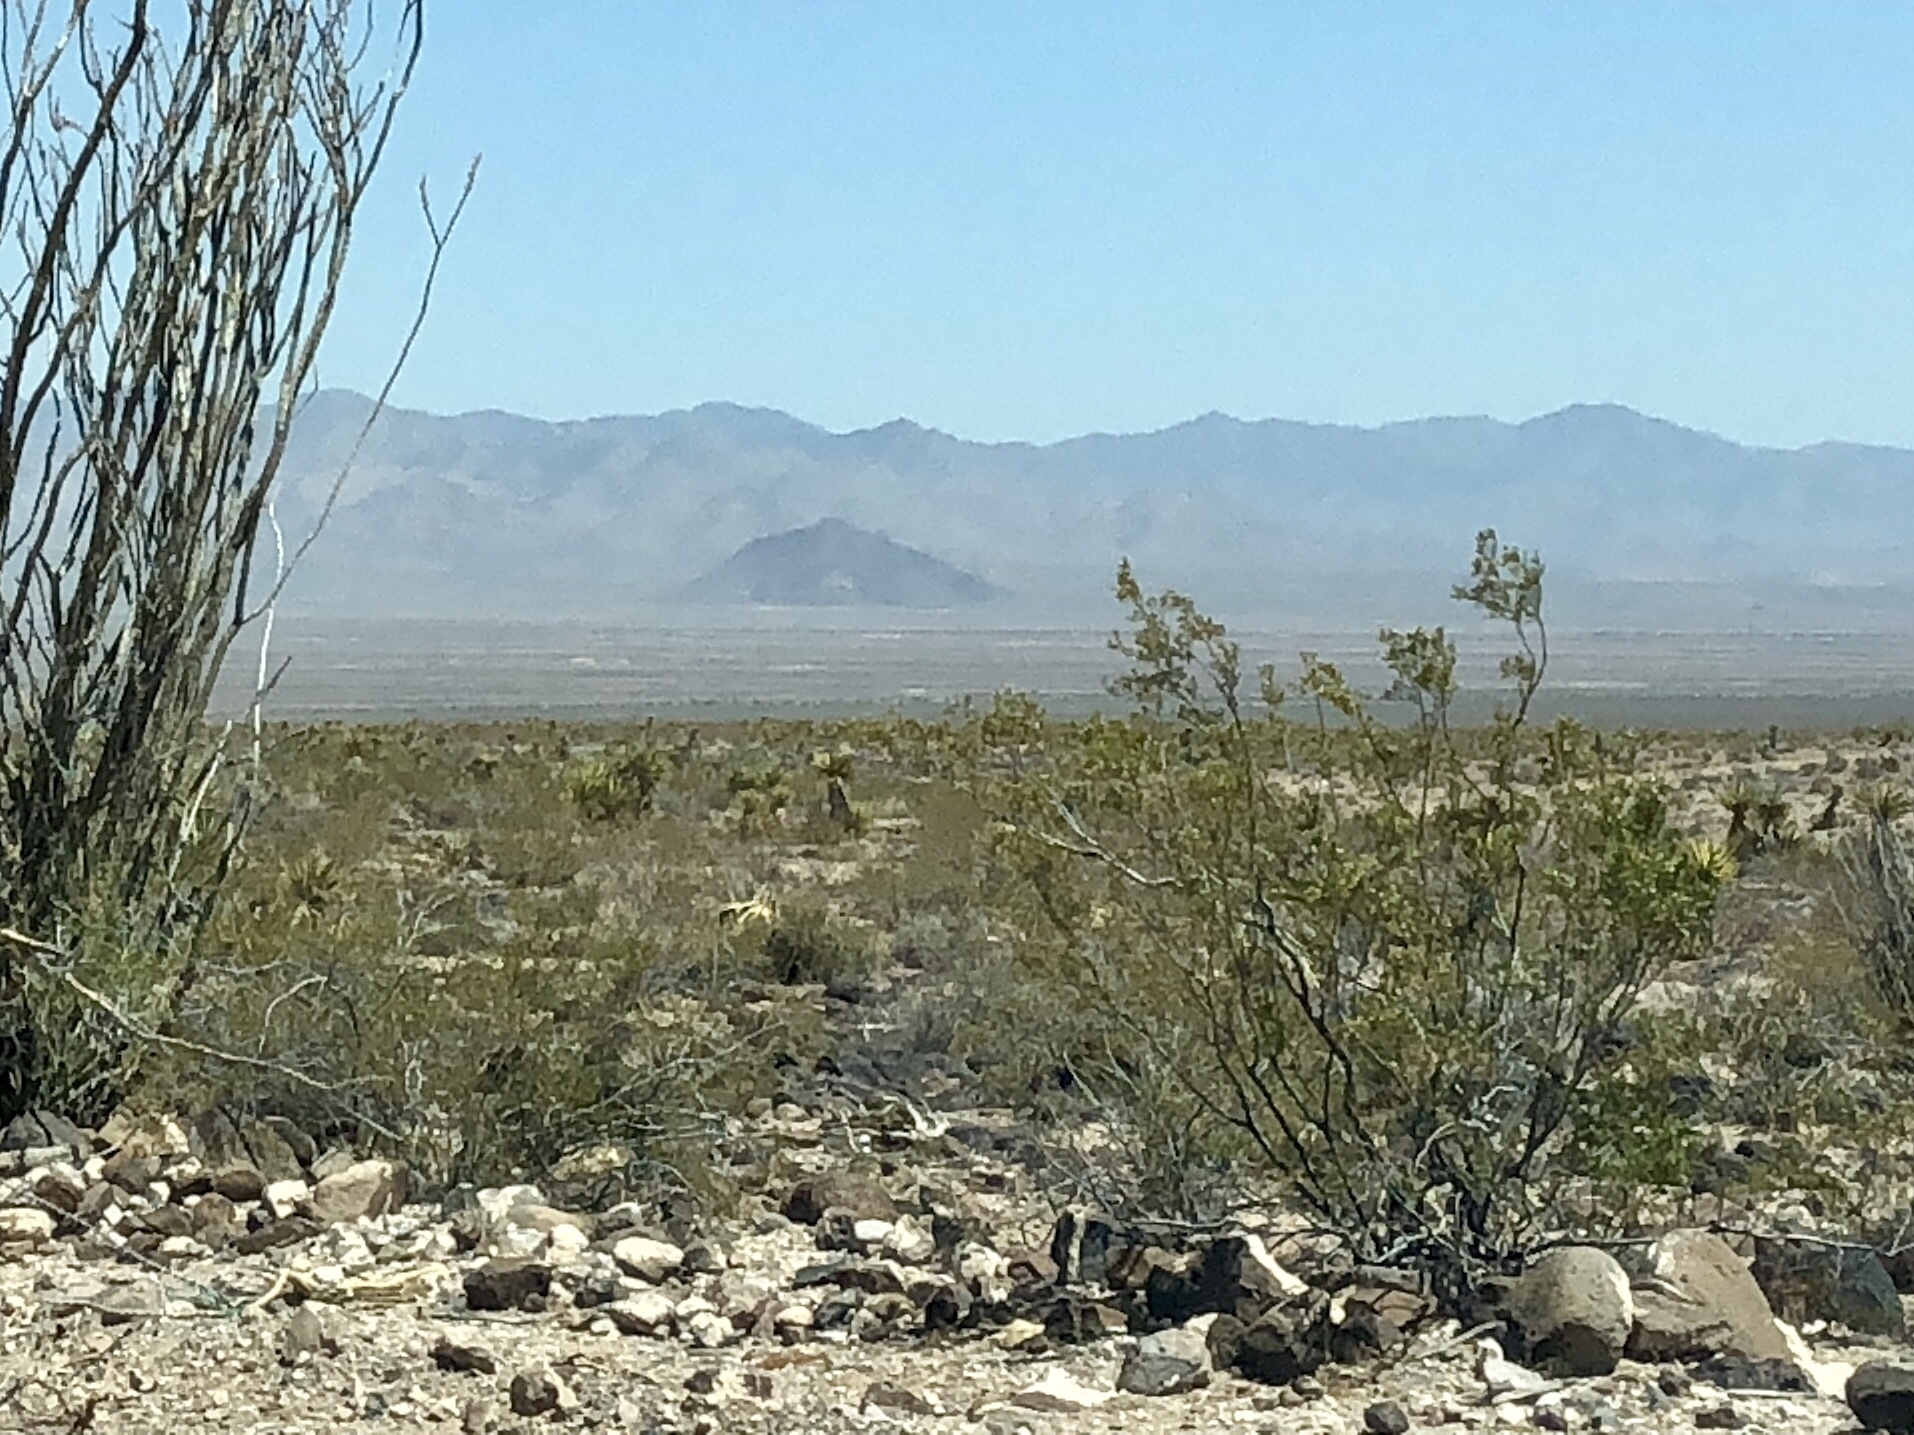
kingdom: Plantae
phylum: Tracheophyta
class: Magnoliopsida
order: Zygophyllales
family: Zygophyllaceae
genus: Larrea
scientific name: Larrea tridentata
